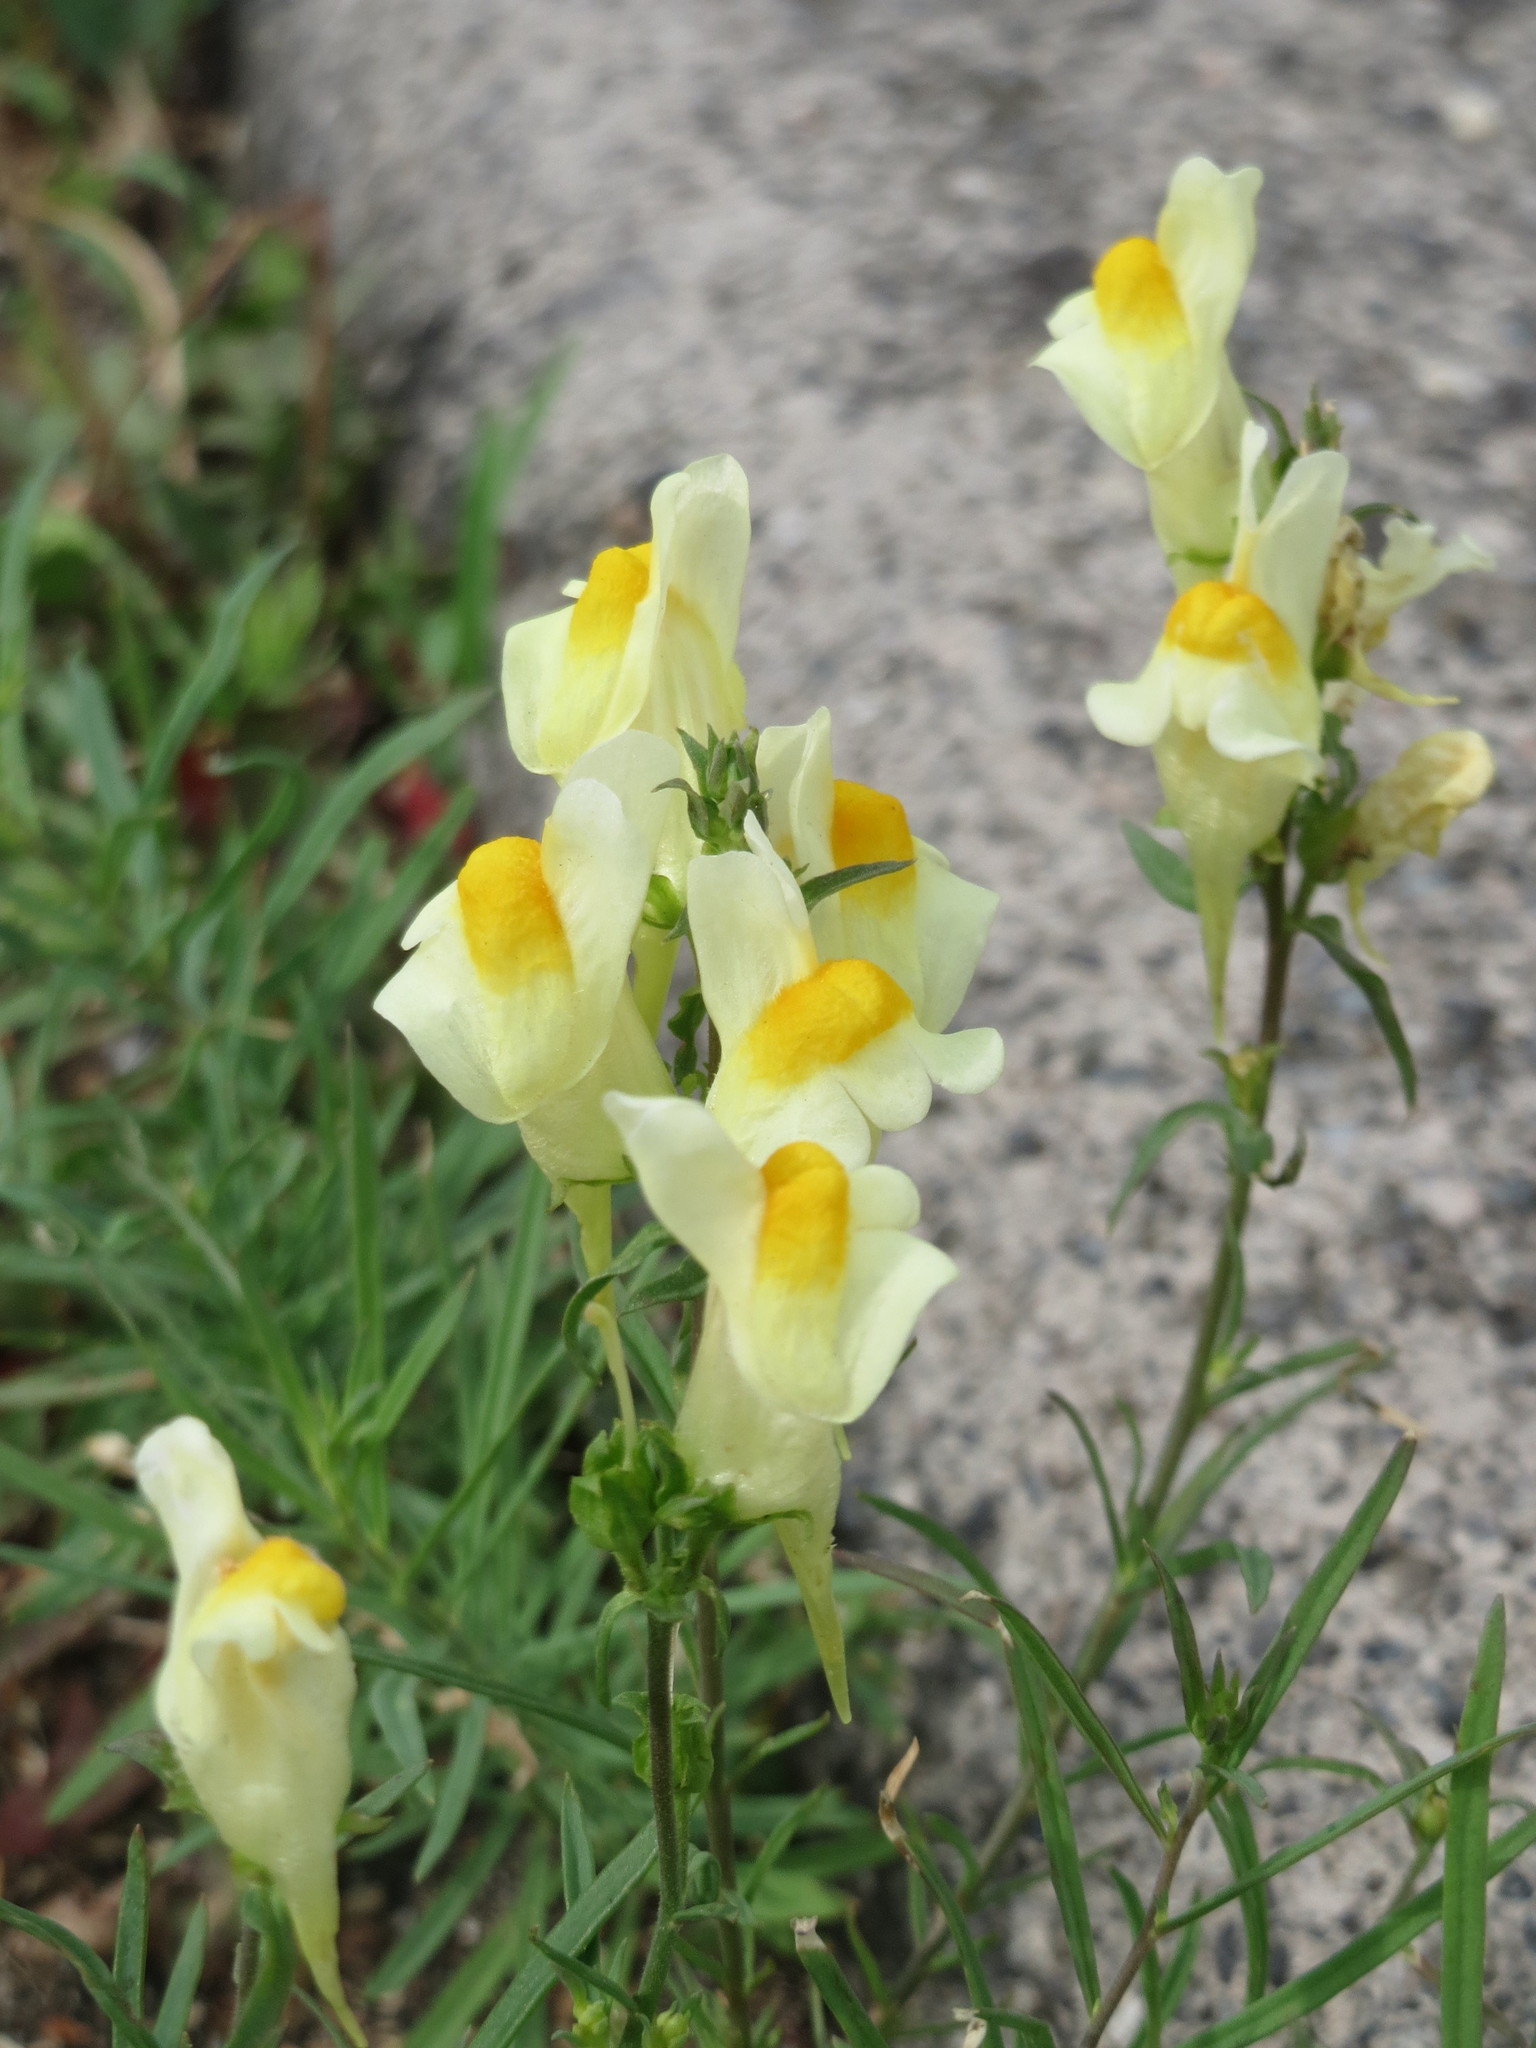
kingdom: Plantae
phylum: Tracheophyta
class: Magnoliopsida
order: Lamiales
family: Plantaginaceae
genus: Linaria
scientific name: Linaria vulgaris
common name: Butter and eggs
